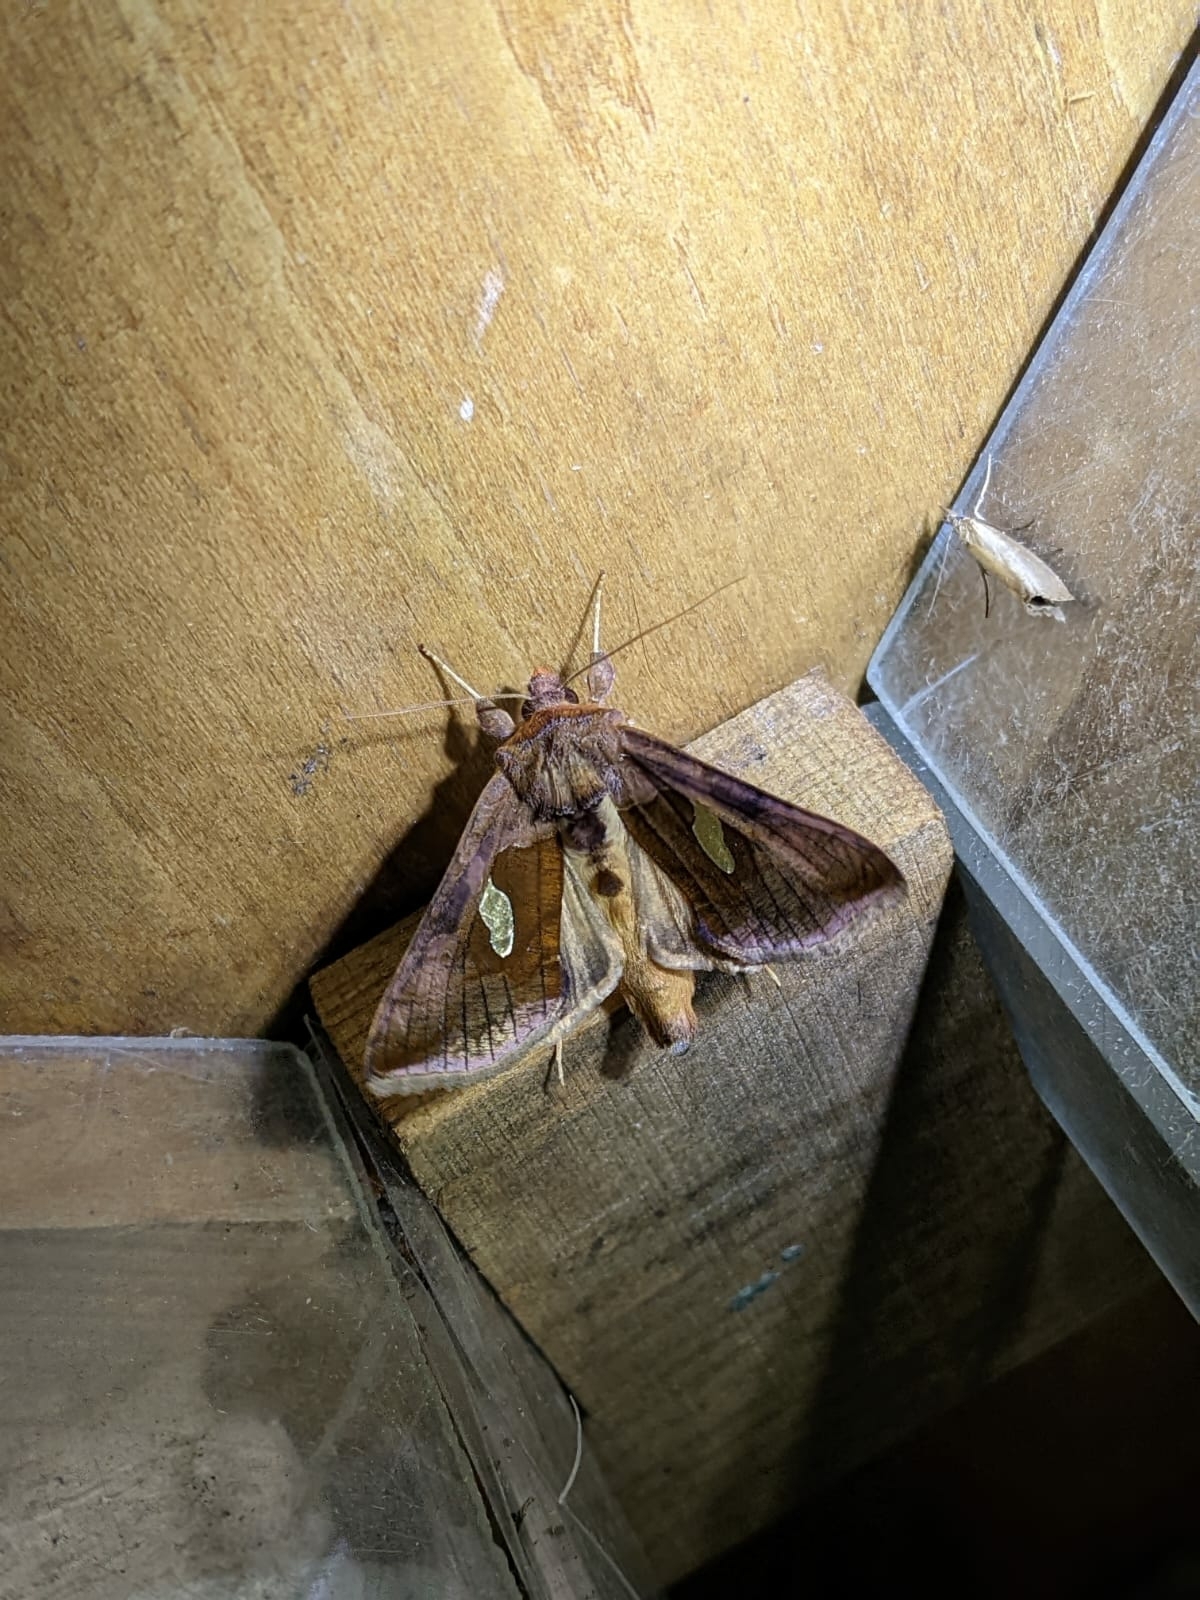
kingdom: Animalia
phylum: Arthropoda
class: Insecta
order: Lepidoptera
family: Noctuidae
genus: Autographa
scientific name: Autographa bractea
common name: Gold spangle
